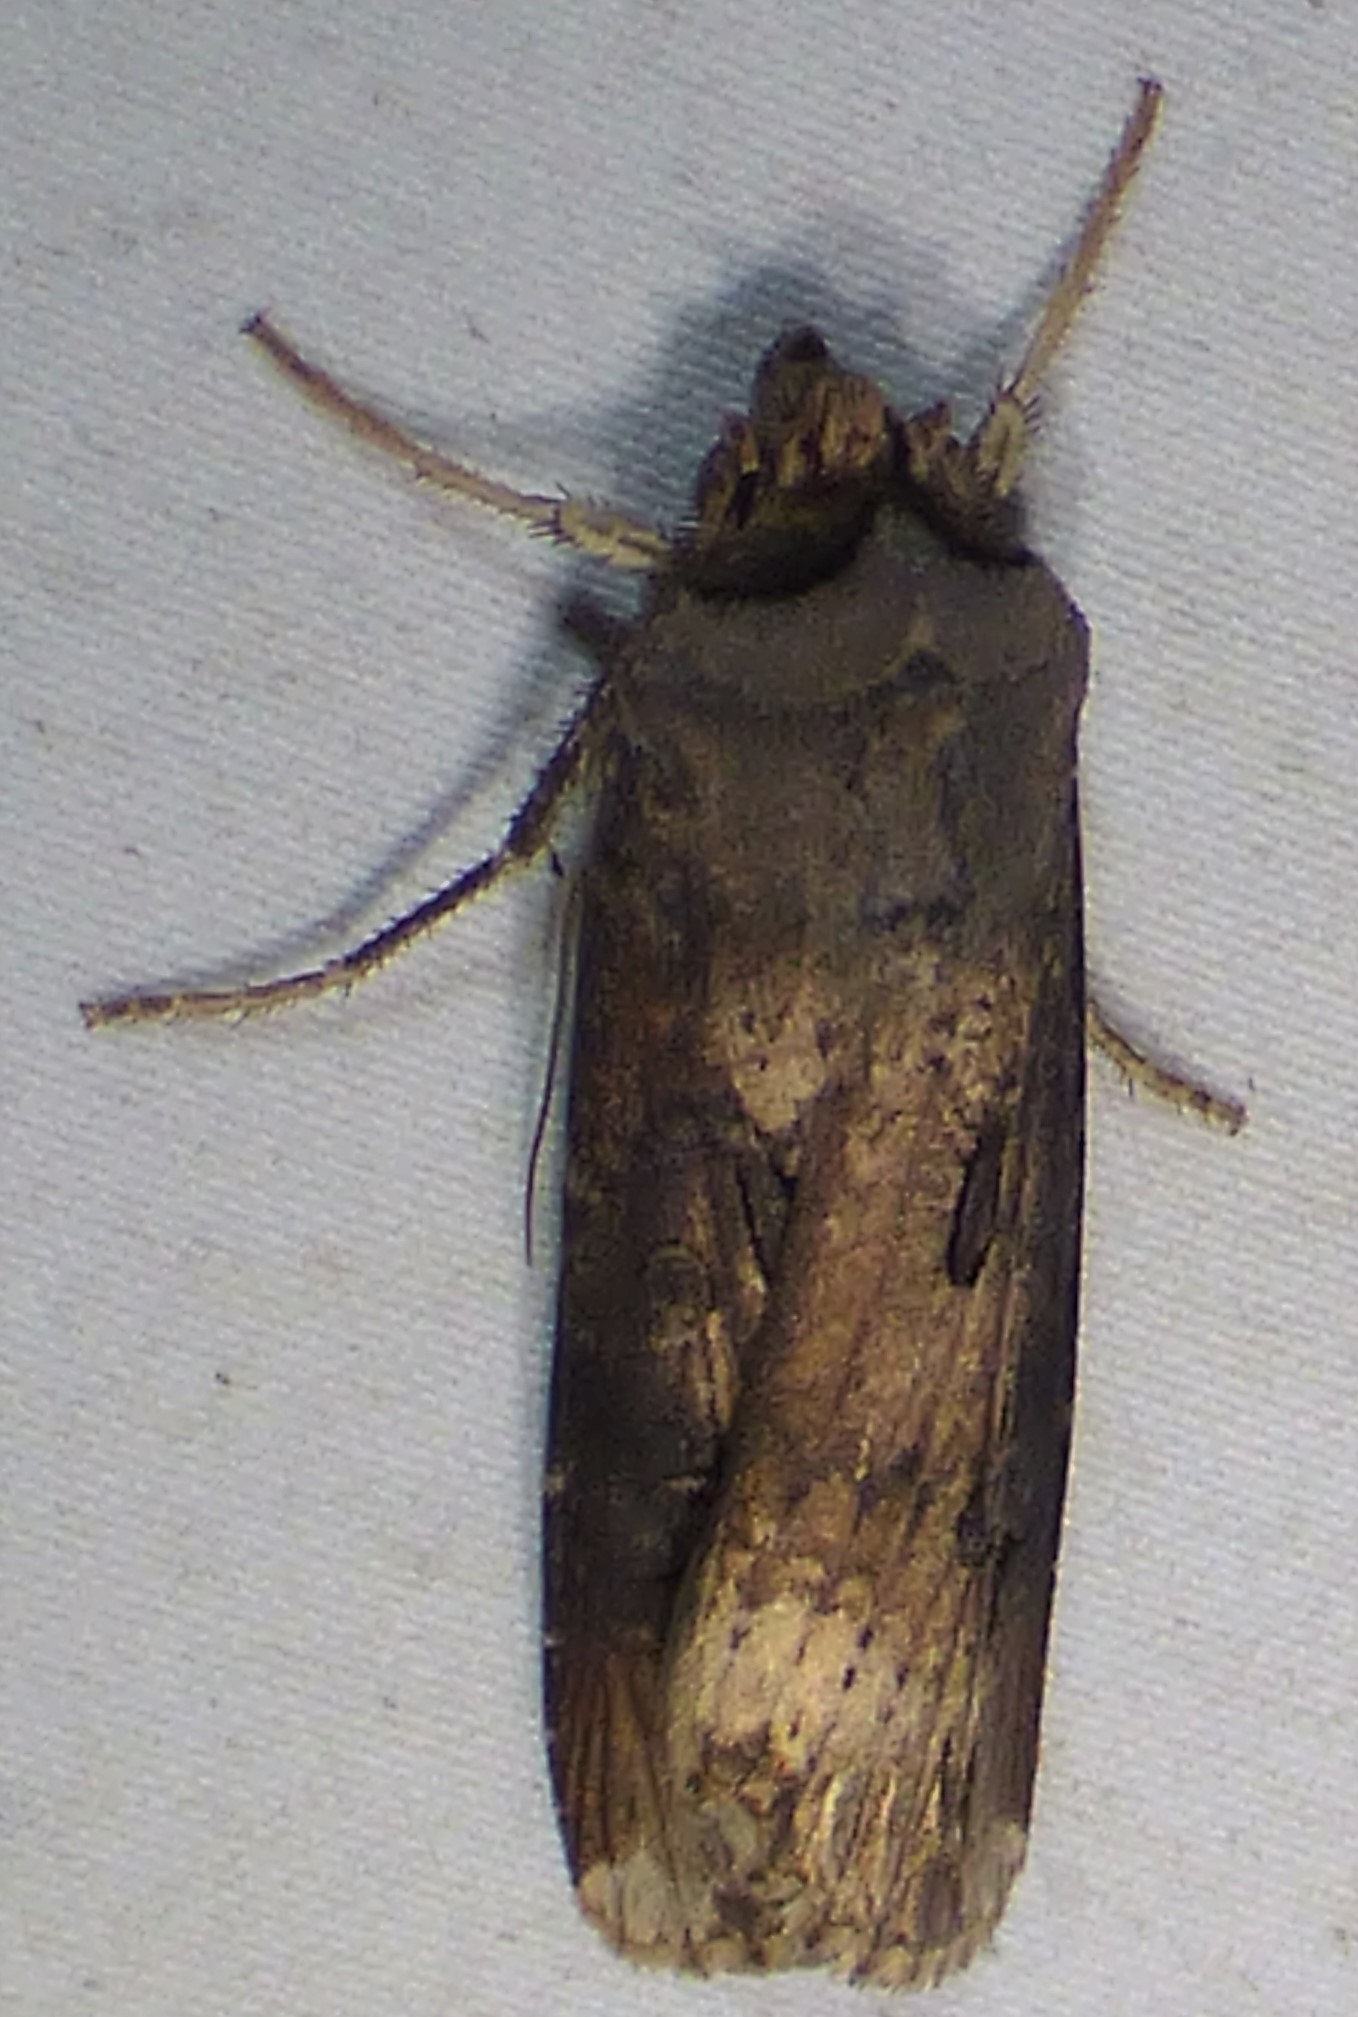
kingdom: Animalia
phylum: Arthropoda
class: Insecta
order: Lepidoptera
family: Noctuidae
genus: Agrotis
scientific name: Agrotis ipsilon
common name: Dark sword-grass
